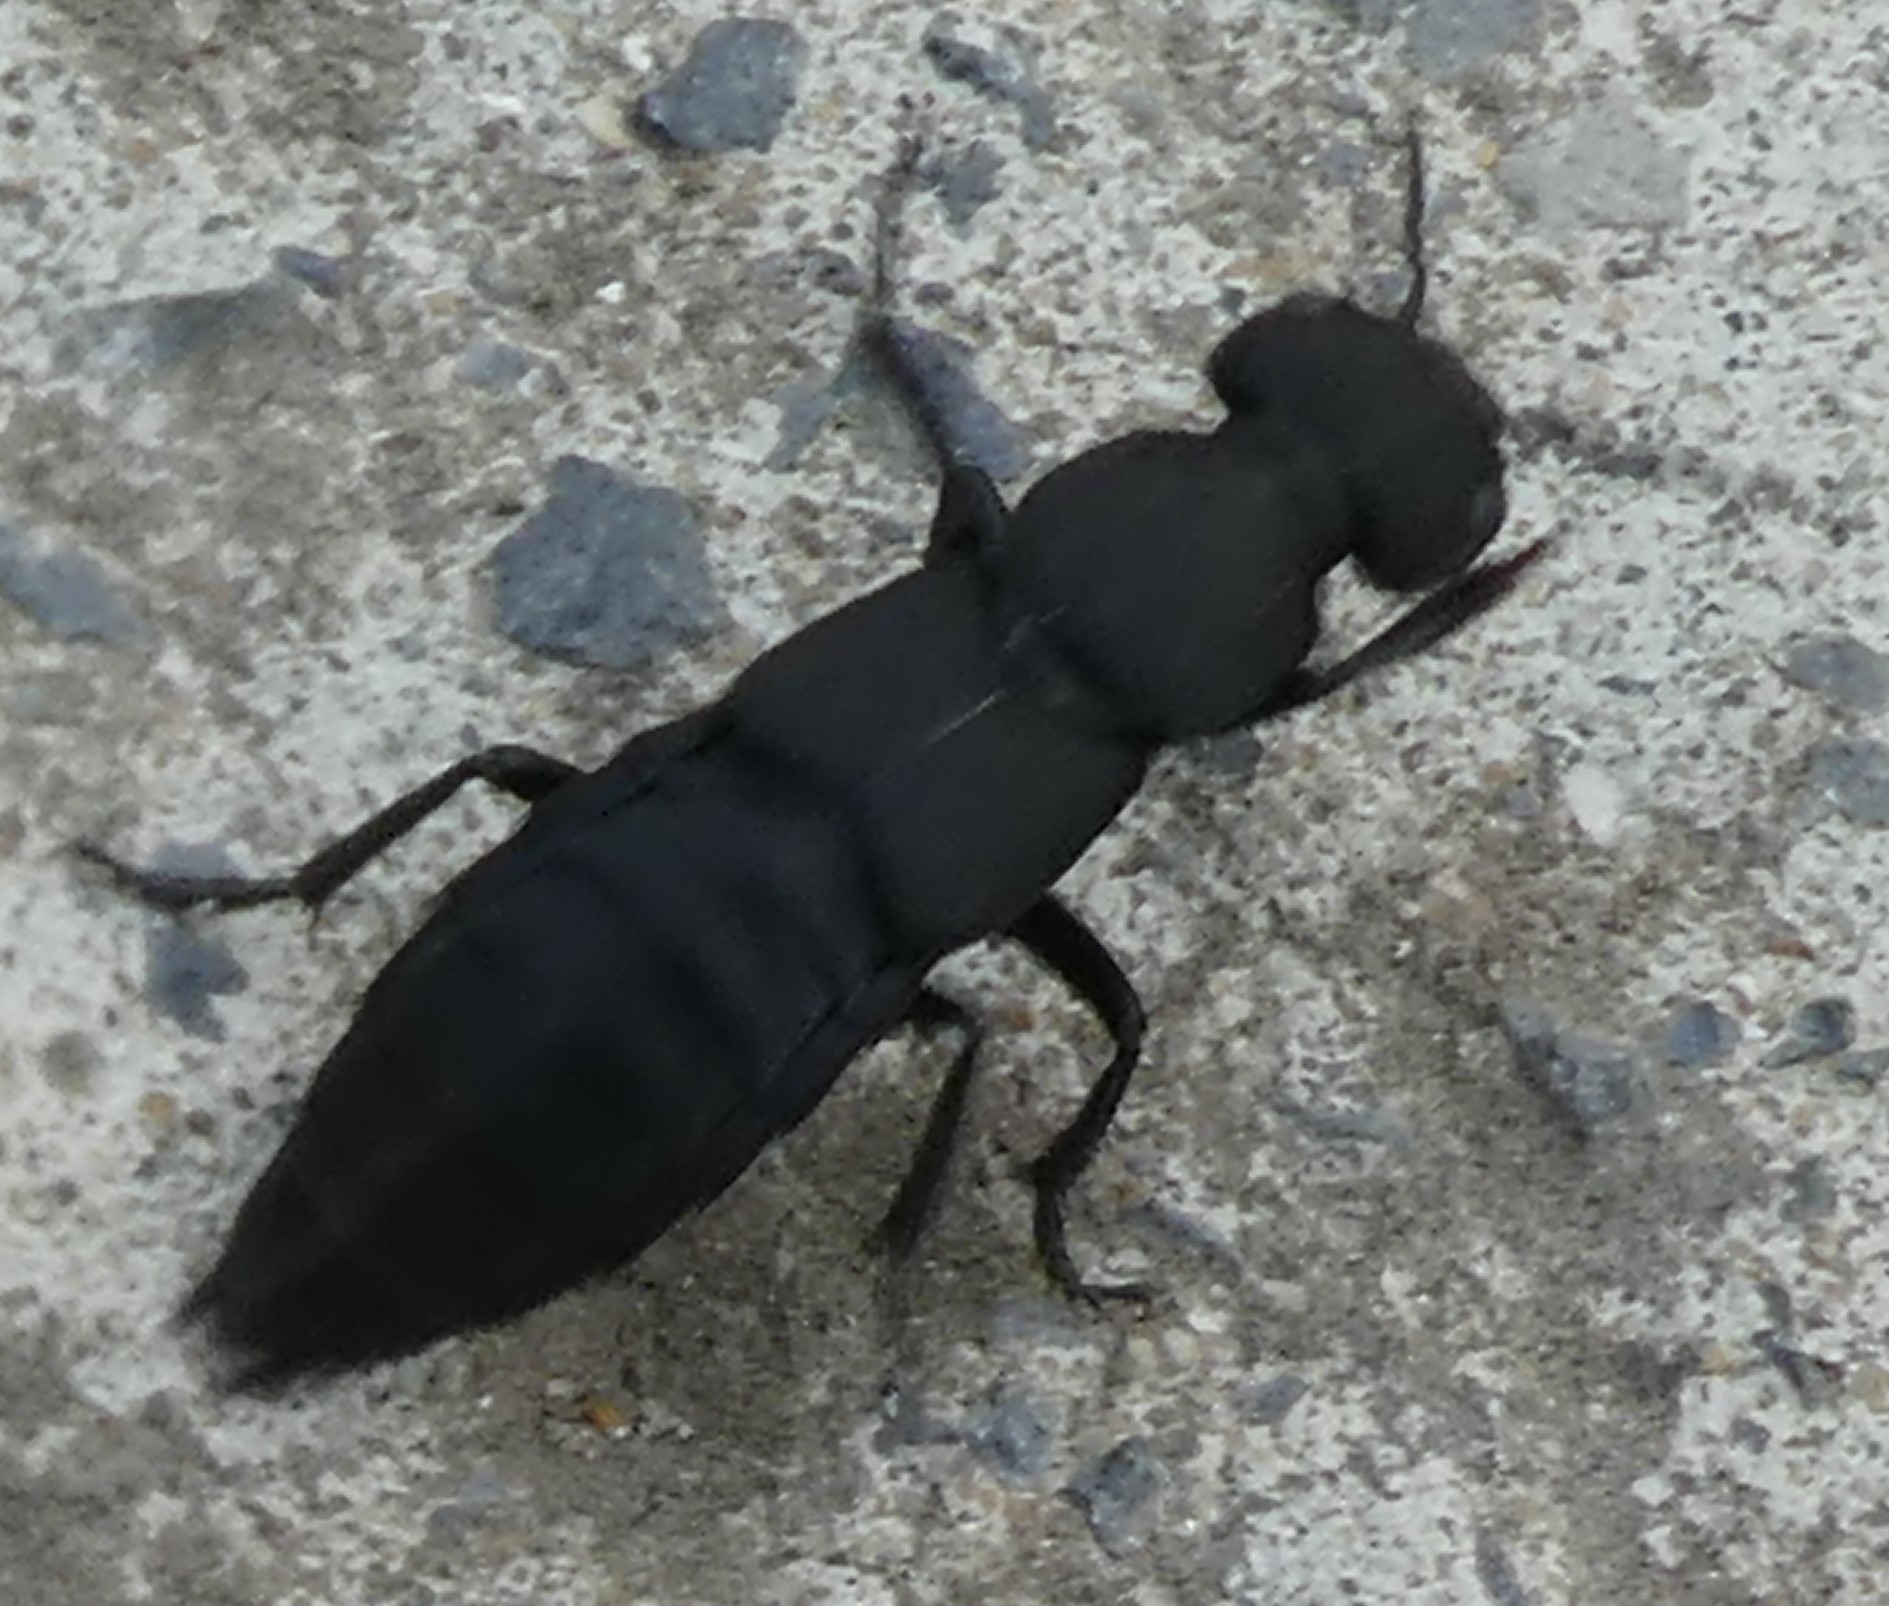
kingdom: Animalia
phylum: Arthropoda
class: Insecta
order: Coleoptera
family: Staphylinidae
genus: Ocypus
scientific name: Ocypus olens
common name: Devil's coach-horse
